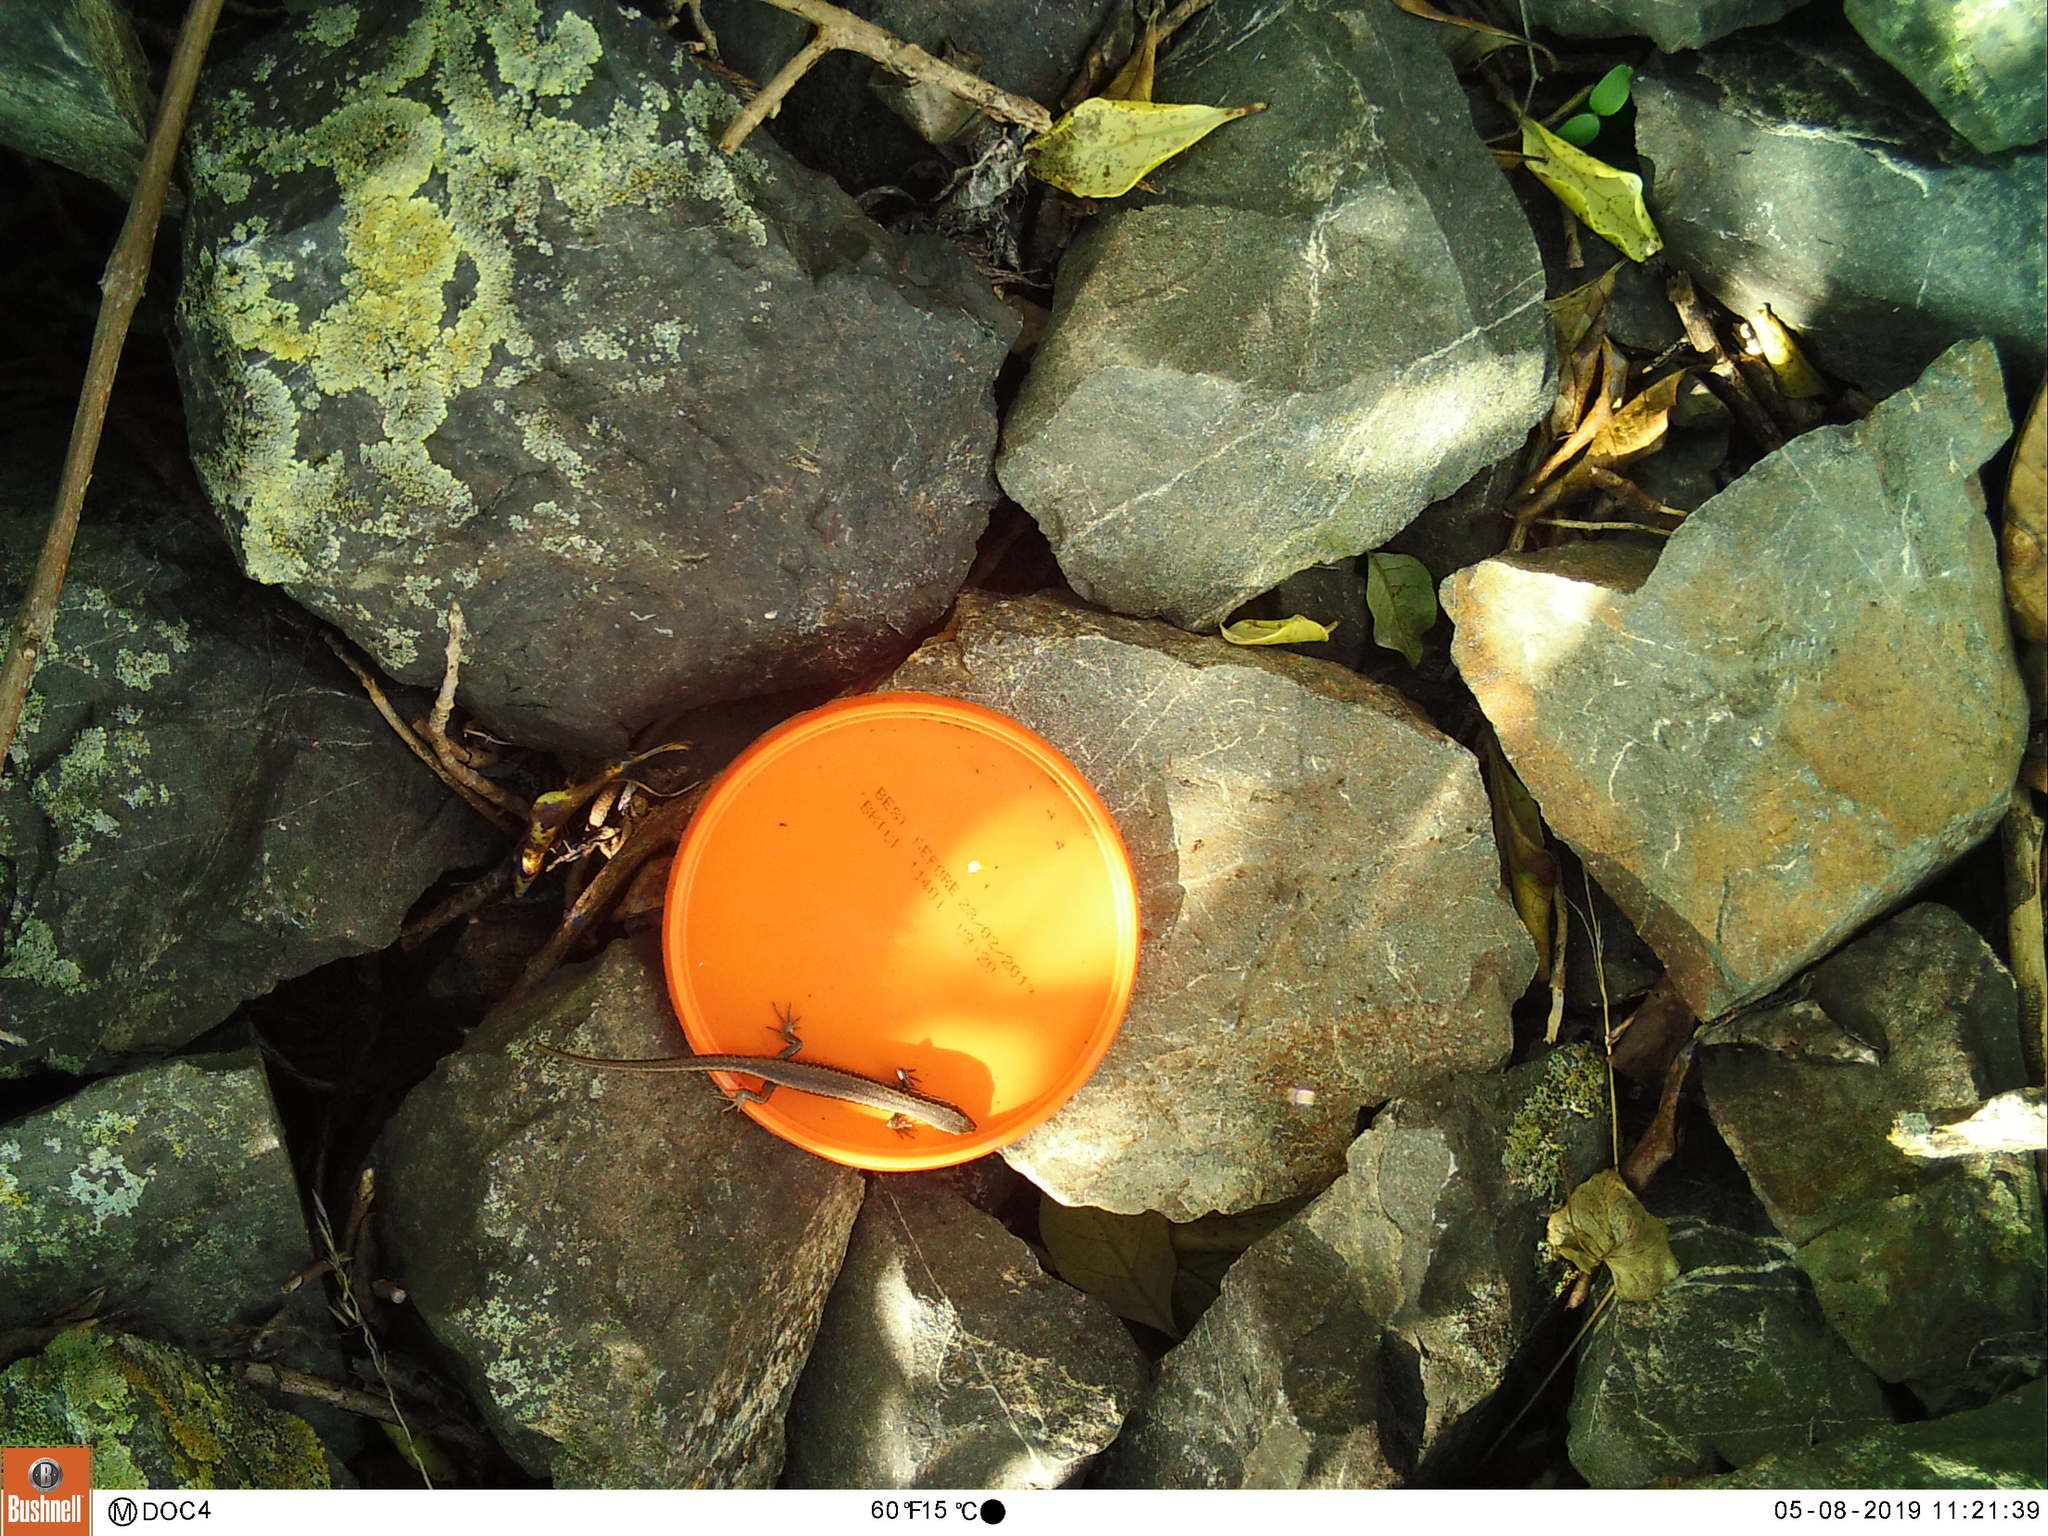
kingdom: Animalia
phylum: Chordata
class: Squamata
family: Scincidae
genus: Oligosoma
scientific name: Oligosoma polychroma
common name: Common new zealand skink
